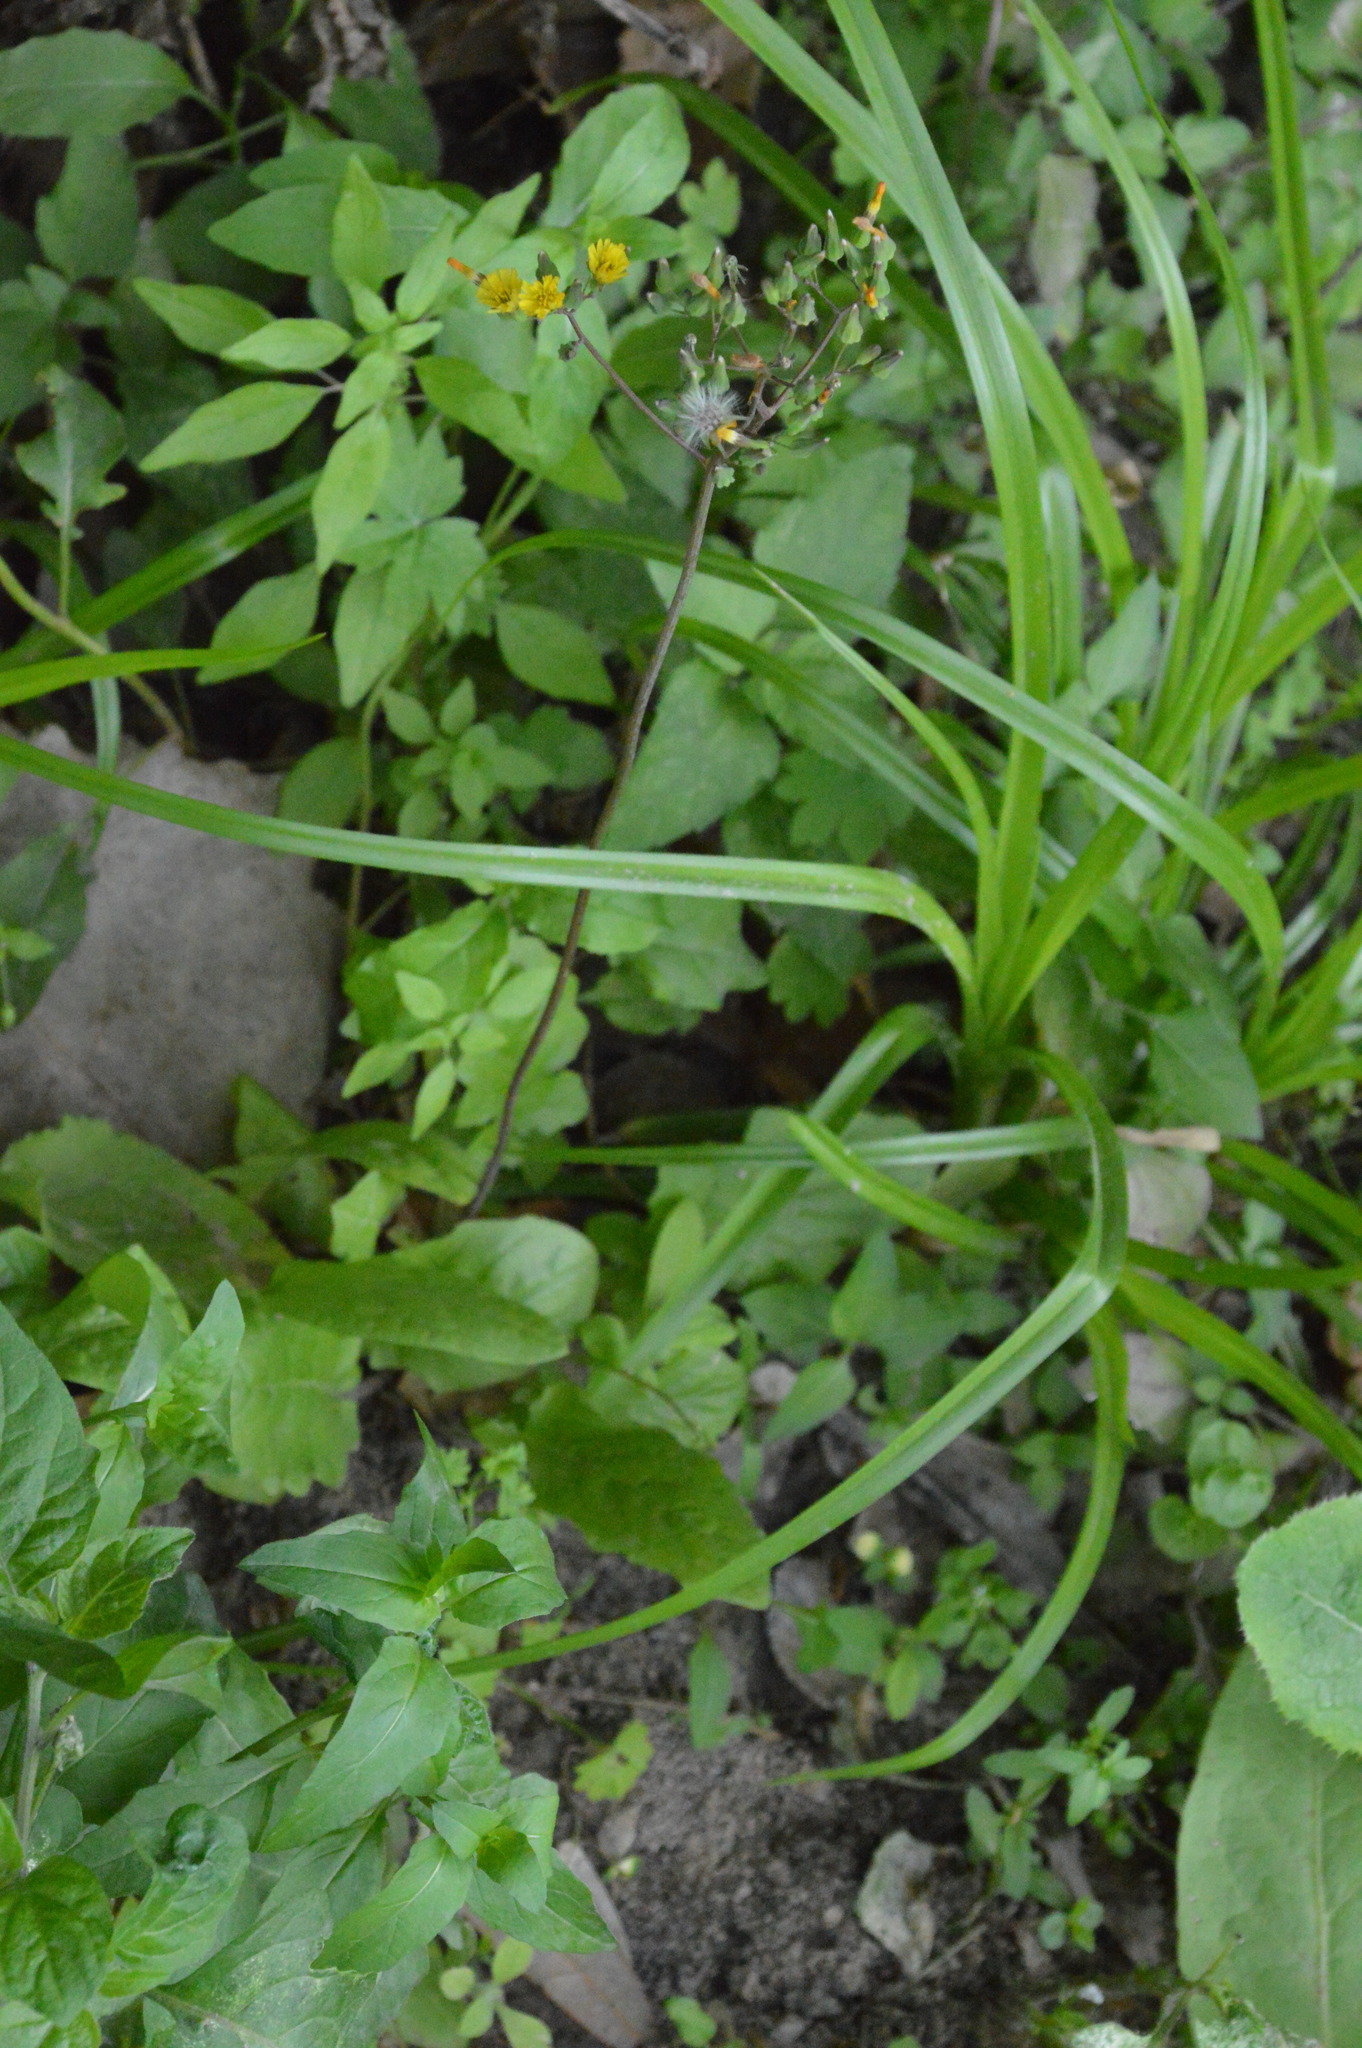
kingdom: Plantae
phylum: Tracheophyta
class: Magnoliopsida
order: Asterales
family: Asteraceae
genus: Youngia
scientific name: Youngia japonica
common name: Oriental false hawksbeard
